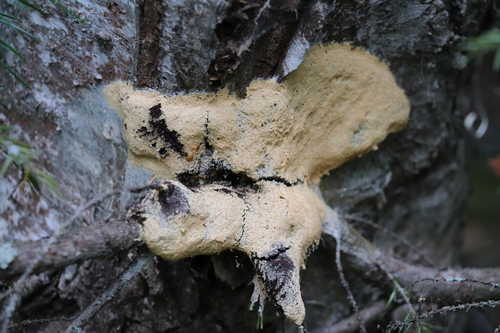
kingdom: Protozoa
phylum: Mycetozoa
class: Myxomycetes
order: Physarales
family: Physaraceae
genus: Fuligo
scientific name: Fuligo septica
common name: Dog vomit slime mold
